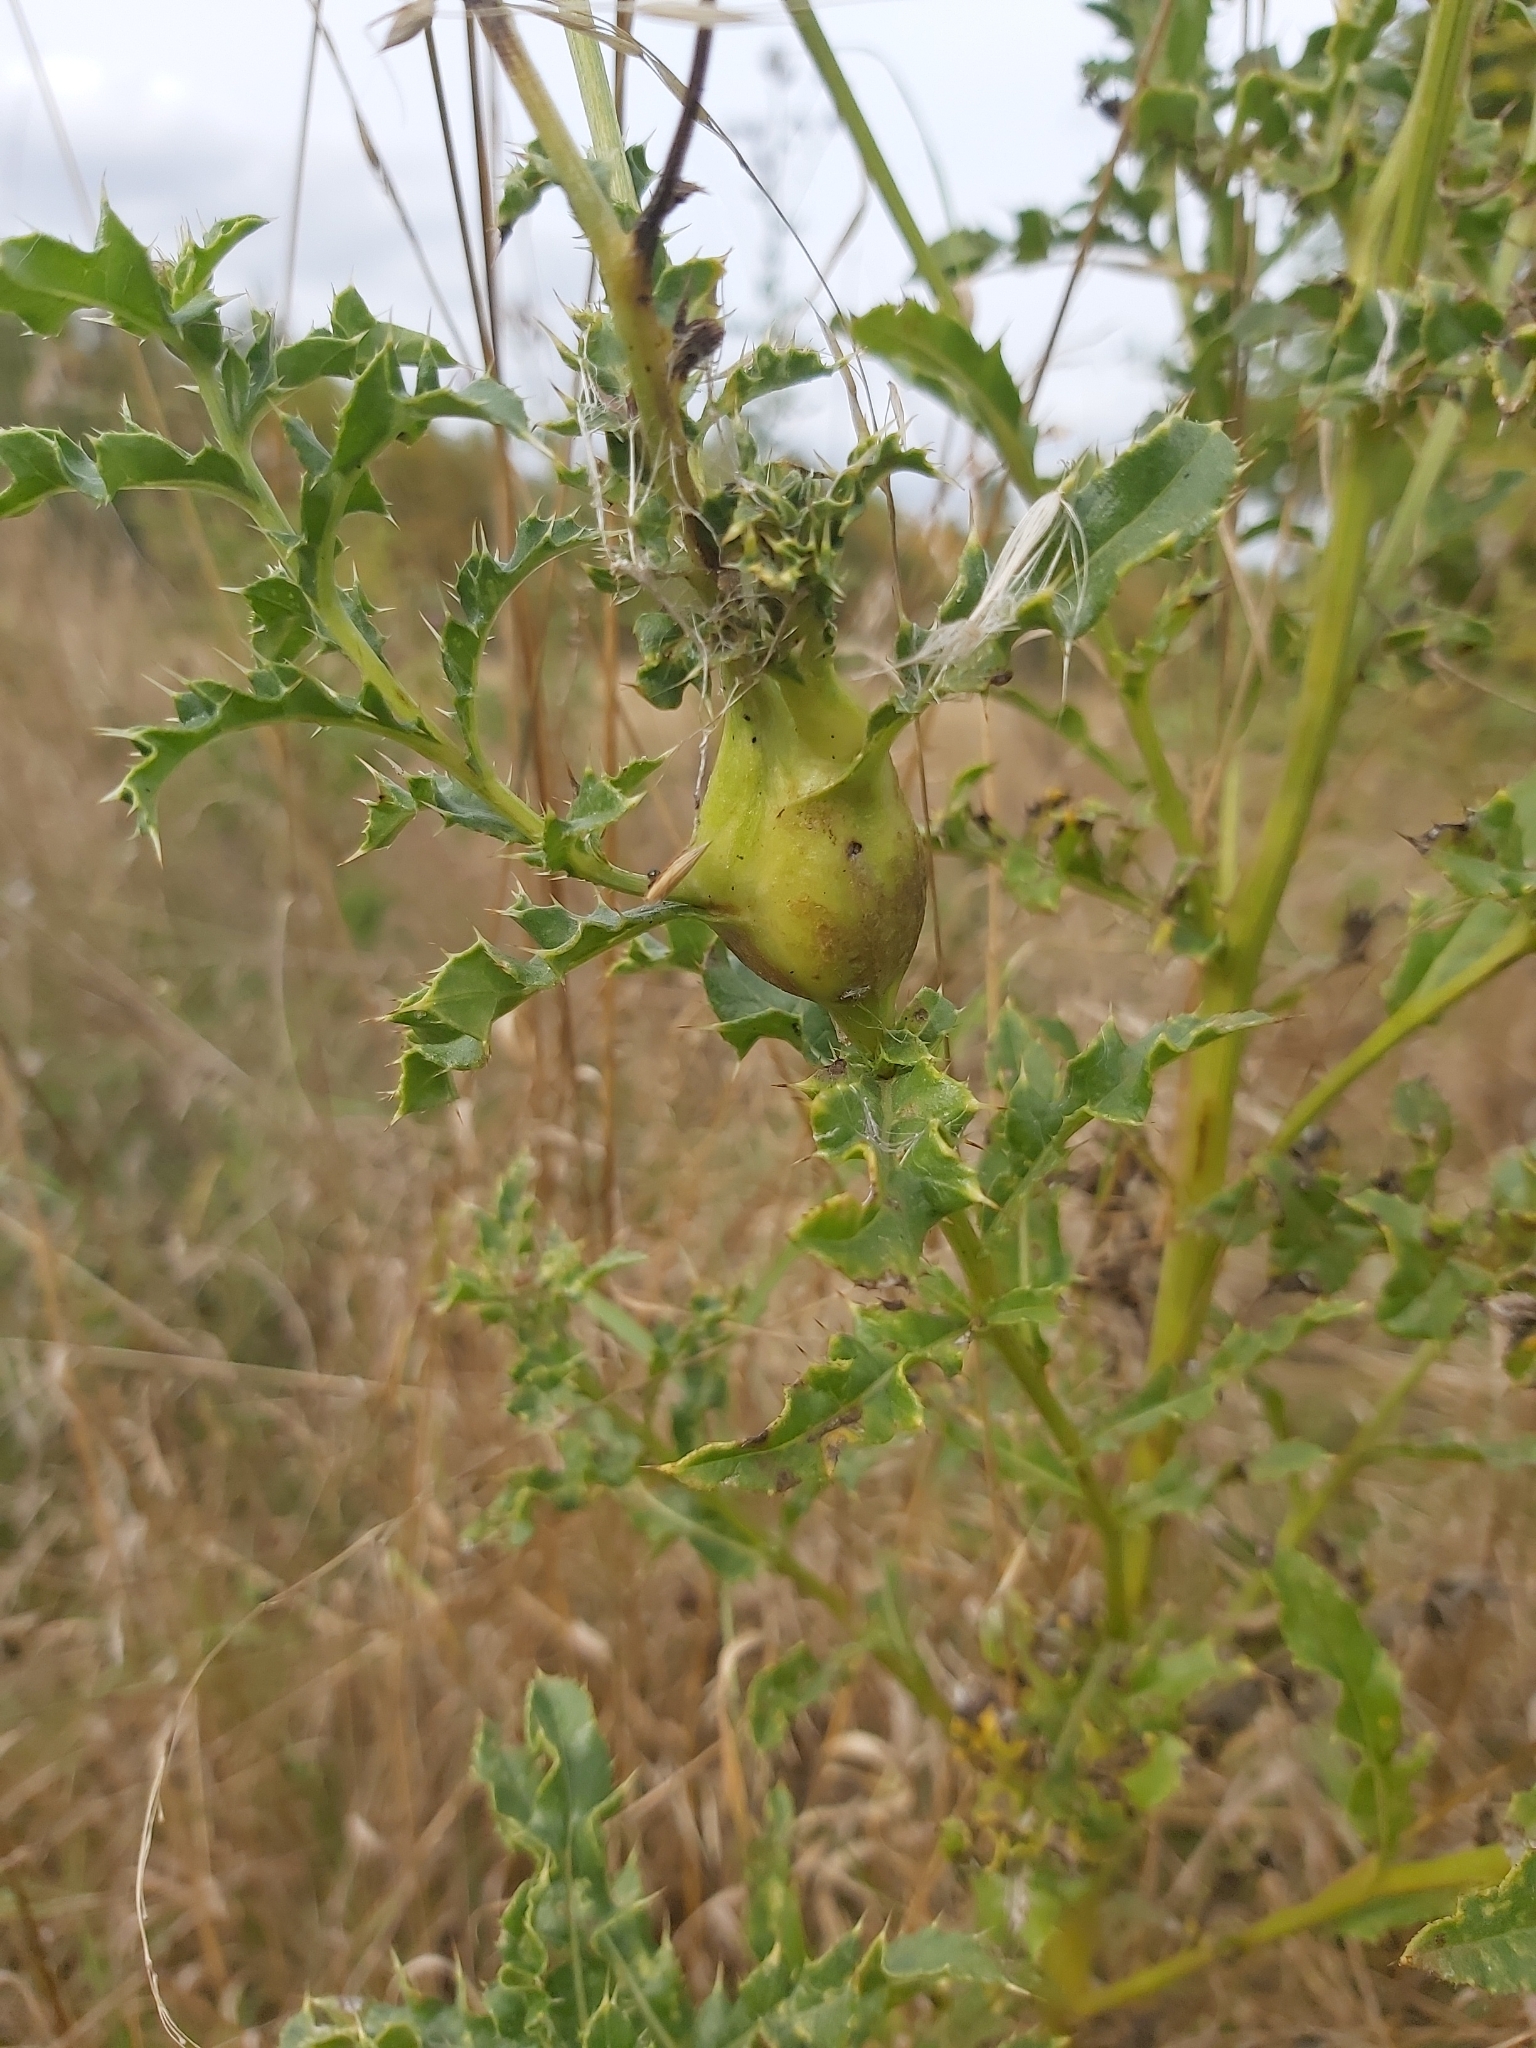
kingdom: Animalia
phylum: Arthropoda
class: Insecta
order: Diptera
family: Tephritidae
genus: Urophora
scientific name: Urophora cardui
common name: Fruit fly
